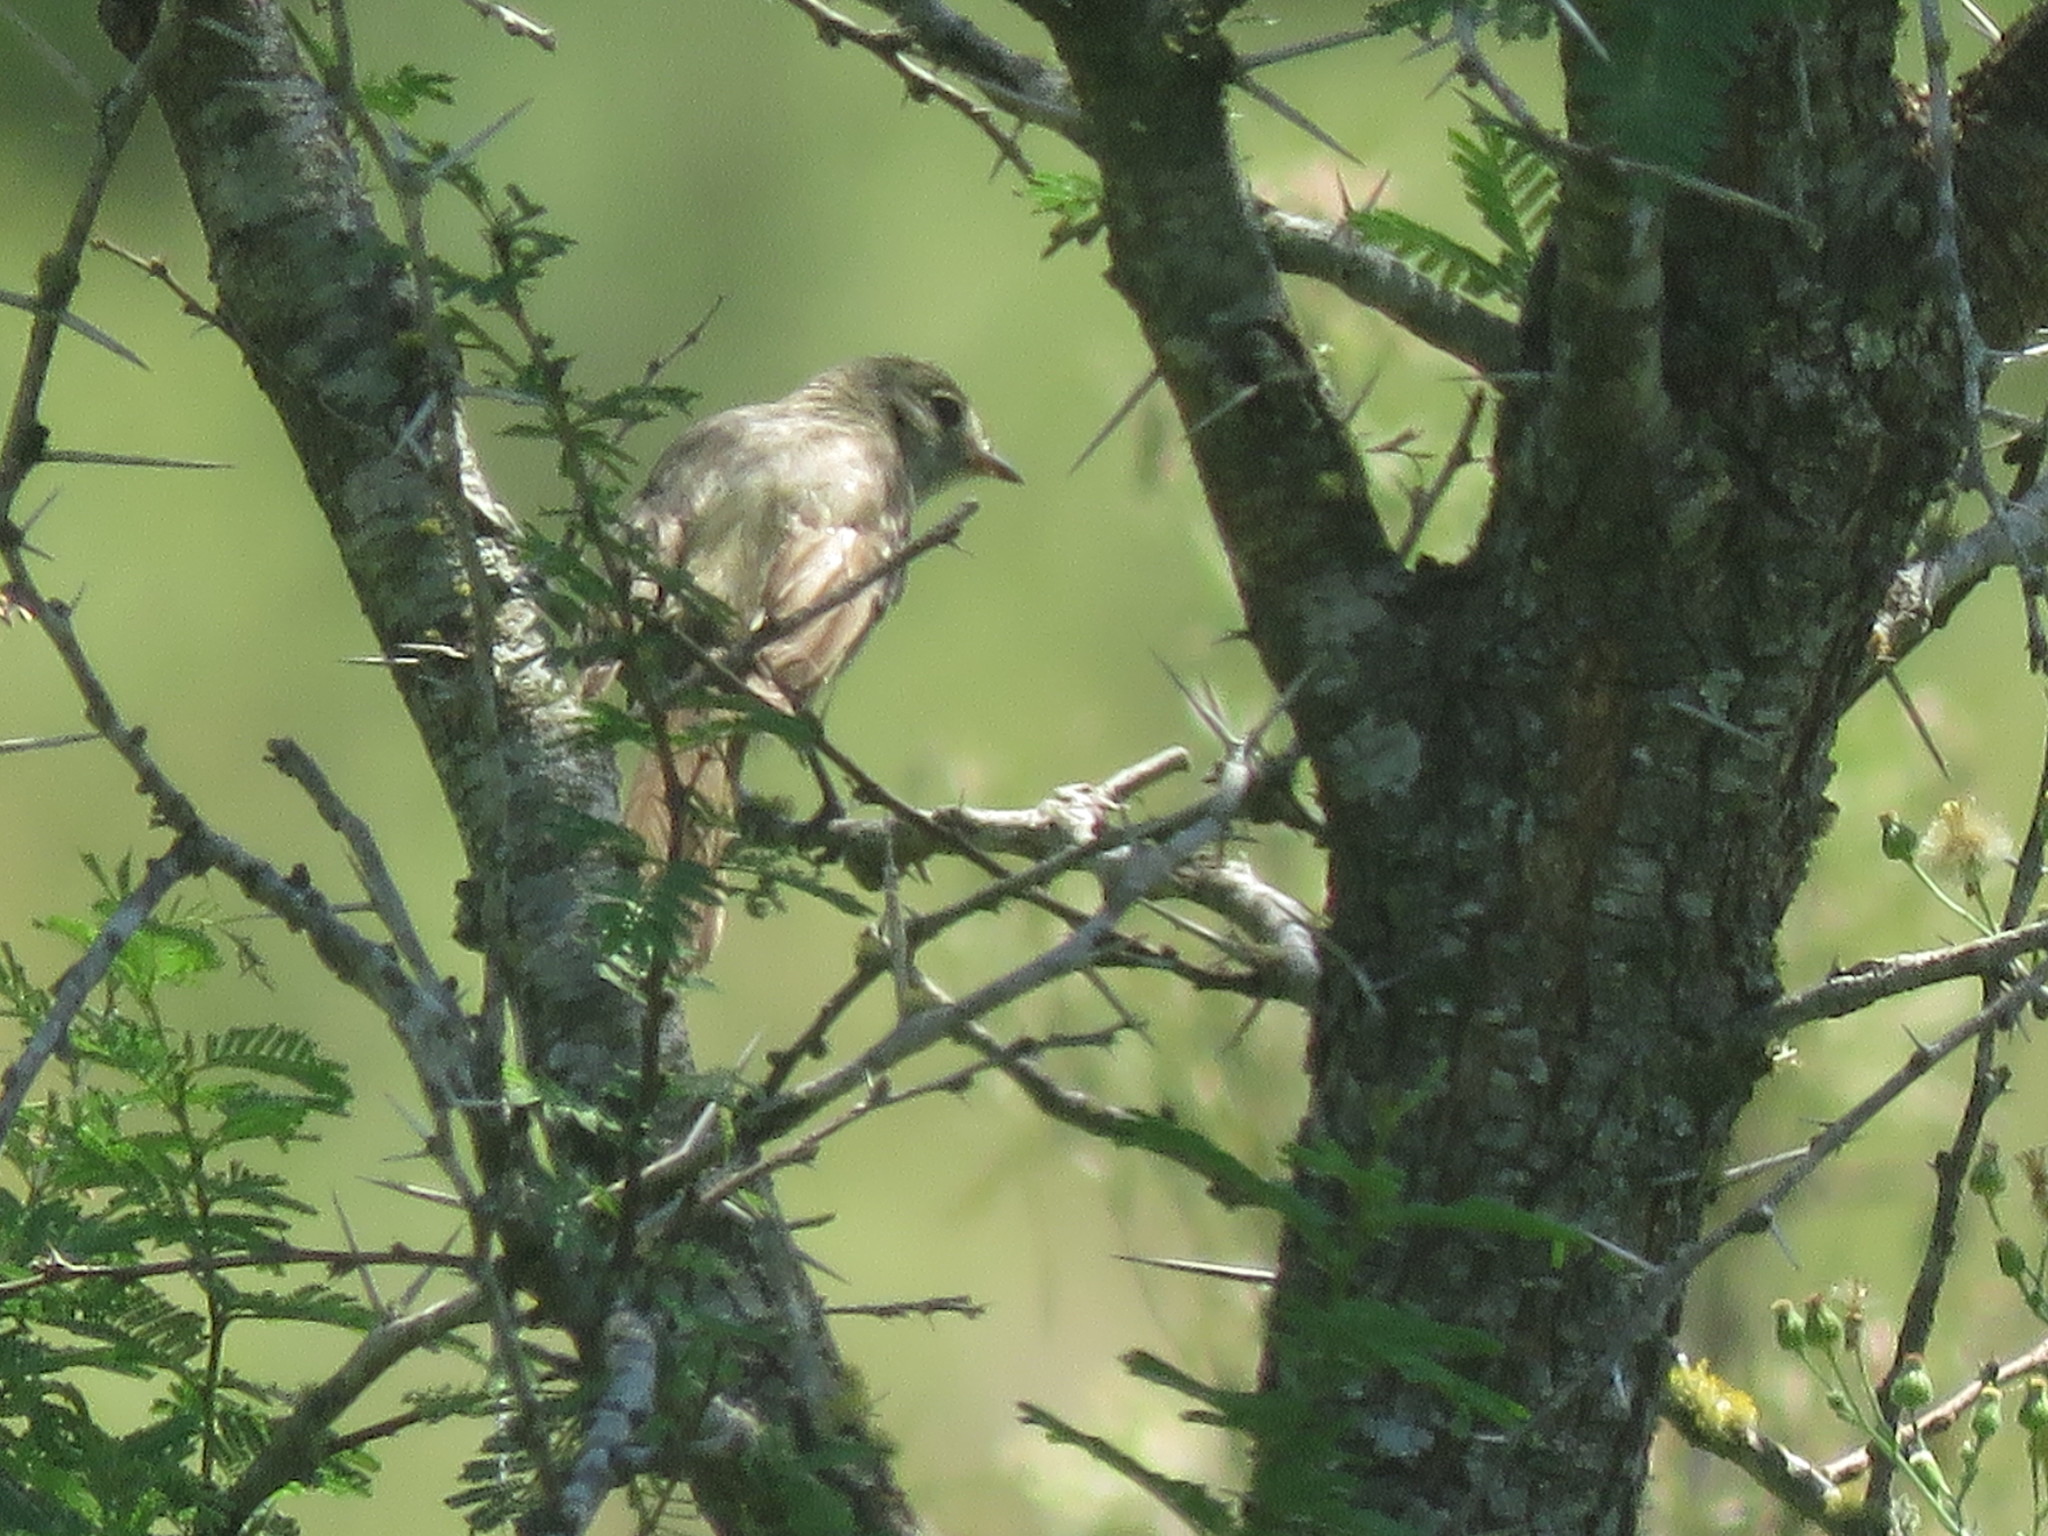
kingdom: Animalia
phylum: Chordata
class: Aves
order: Passeriformes
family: Tyrannidae
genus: Elaenia
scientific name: Elaenia parvirostris
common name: Small-billed elaenia
